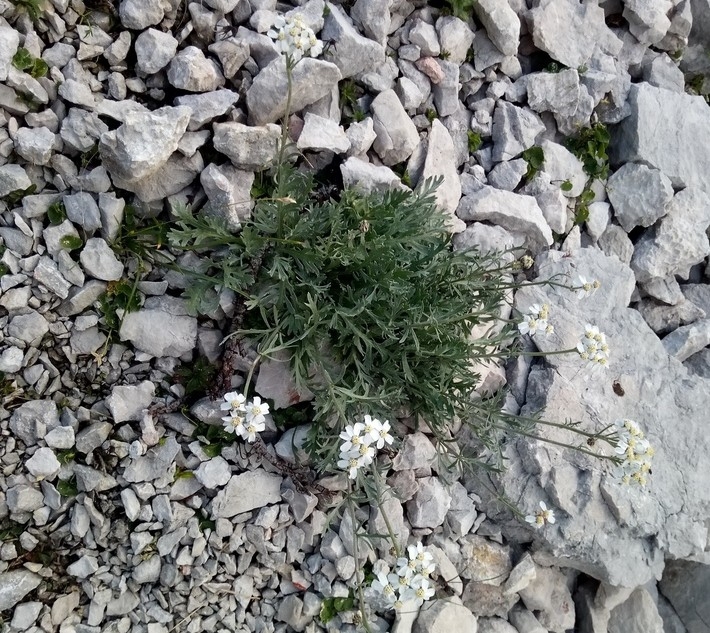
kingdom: Plantae
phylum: Tracheophyta
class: Magnoliopsida
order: Asterales
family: Asteraceae
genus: Achillea
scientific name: Achillea clavennae
